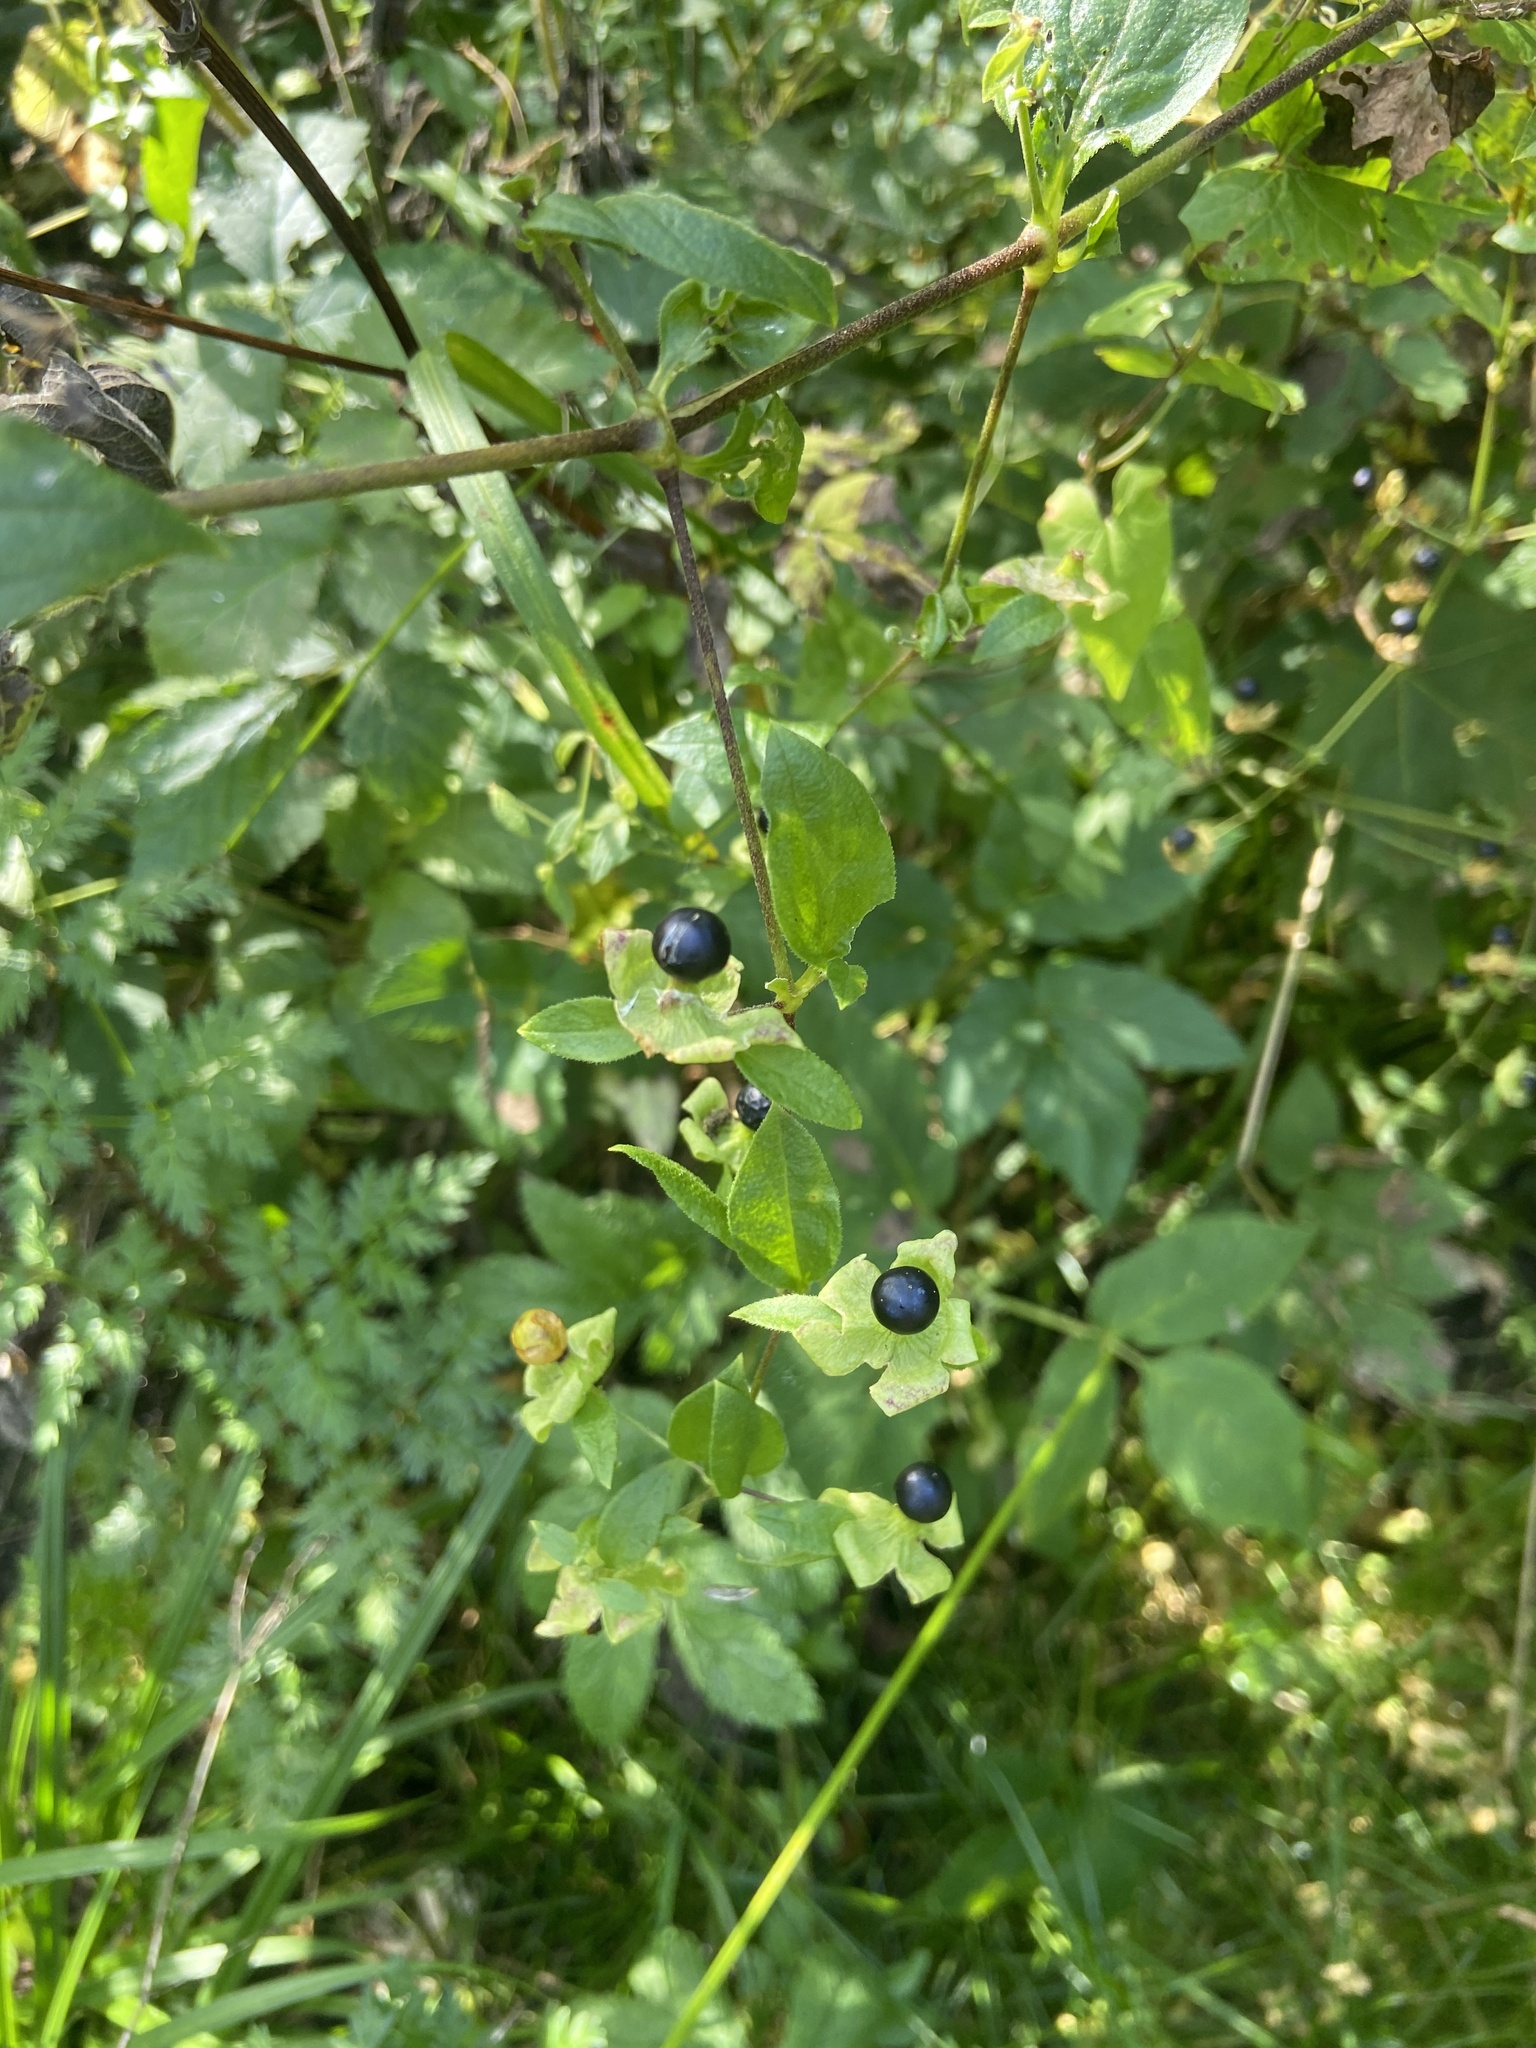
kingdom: Plantae
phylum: Tracheophyta
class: Magnoliopsida
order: Caryophyllales
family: Caryophyllaceae
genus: Silene
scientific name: Silene baccifera
